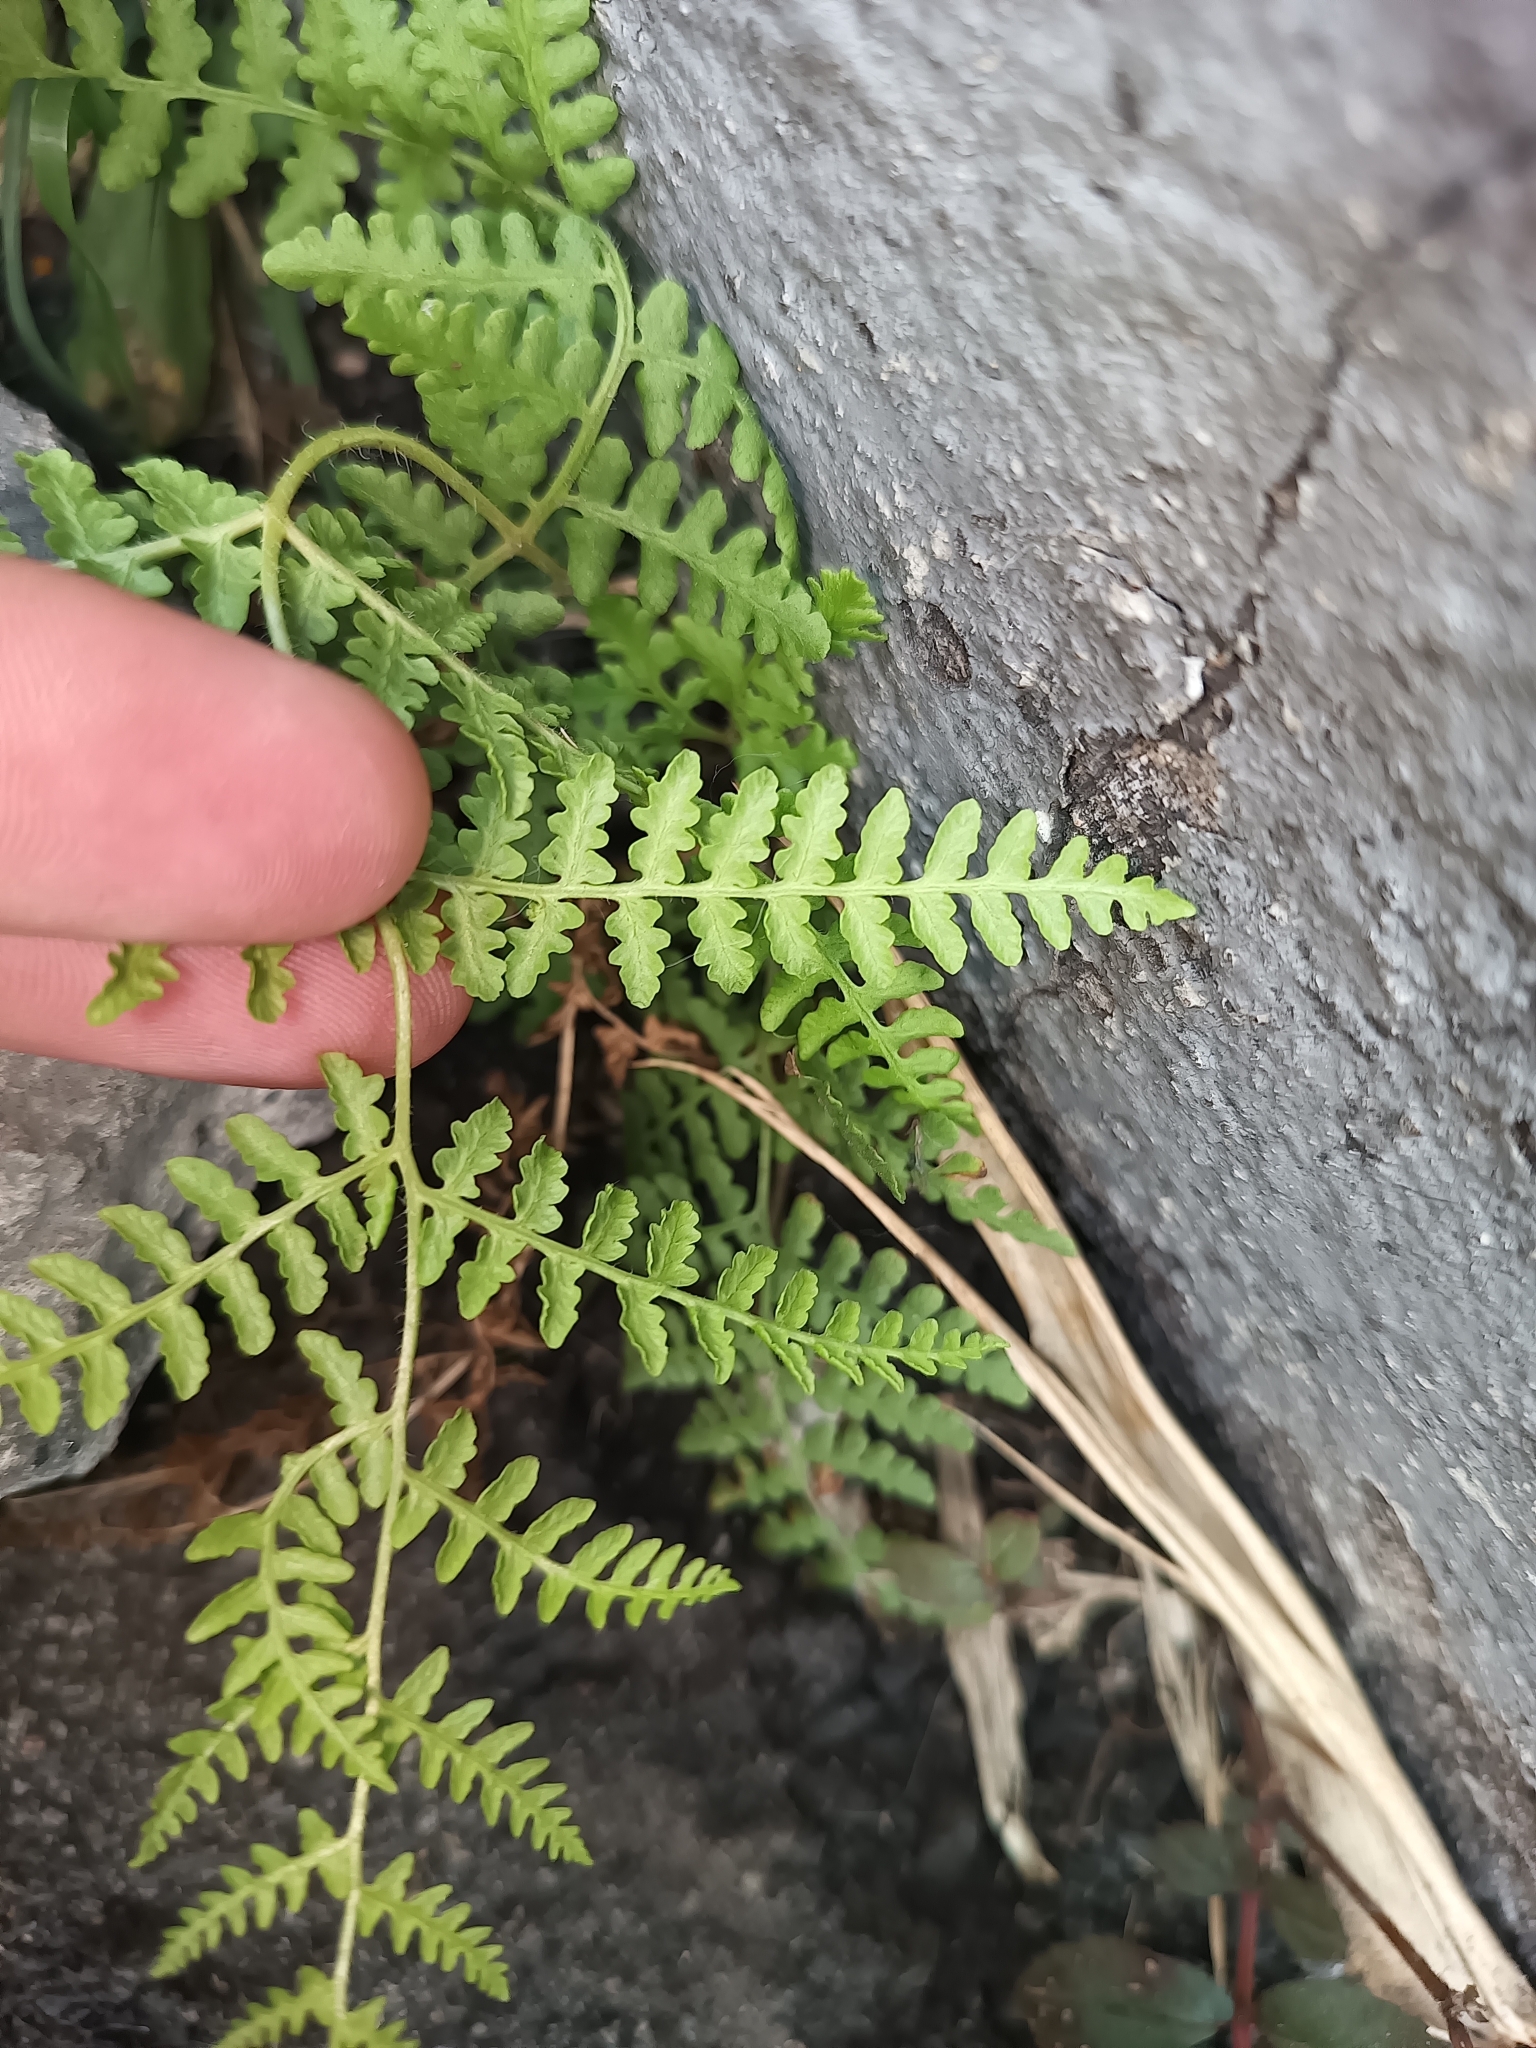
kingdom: Plantae
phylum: Tracheophyta
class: Polypodiopsida
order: Polypodiales
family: Cystopteridaceae
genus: Cystopteris
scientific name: Cystopteris fragilis
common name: Brittle bladder fern
